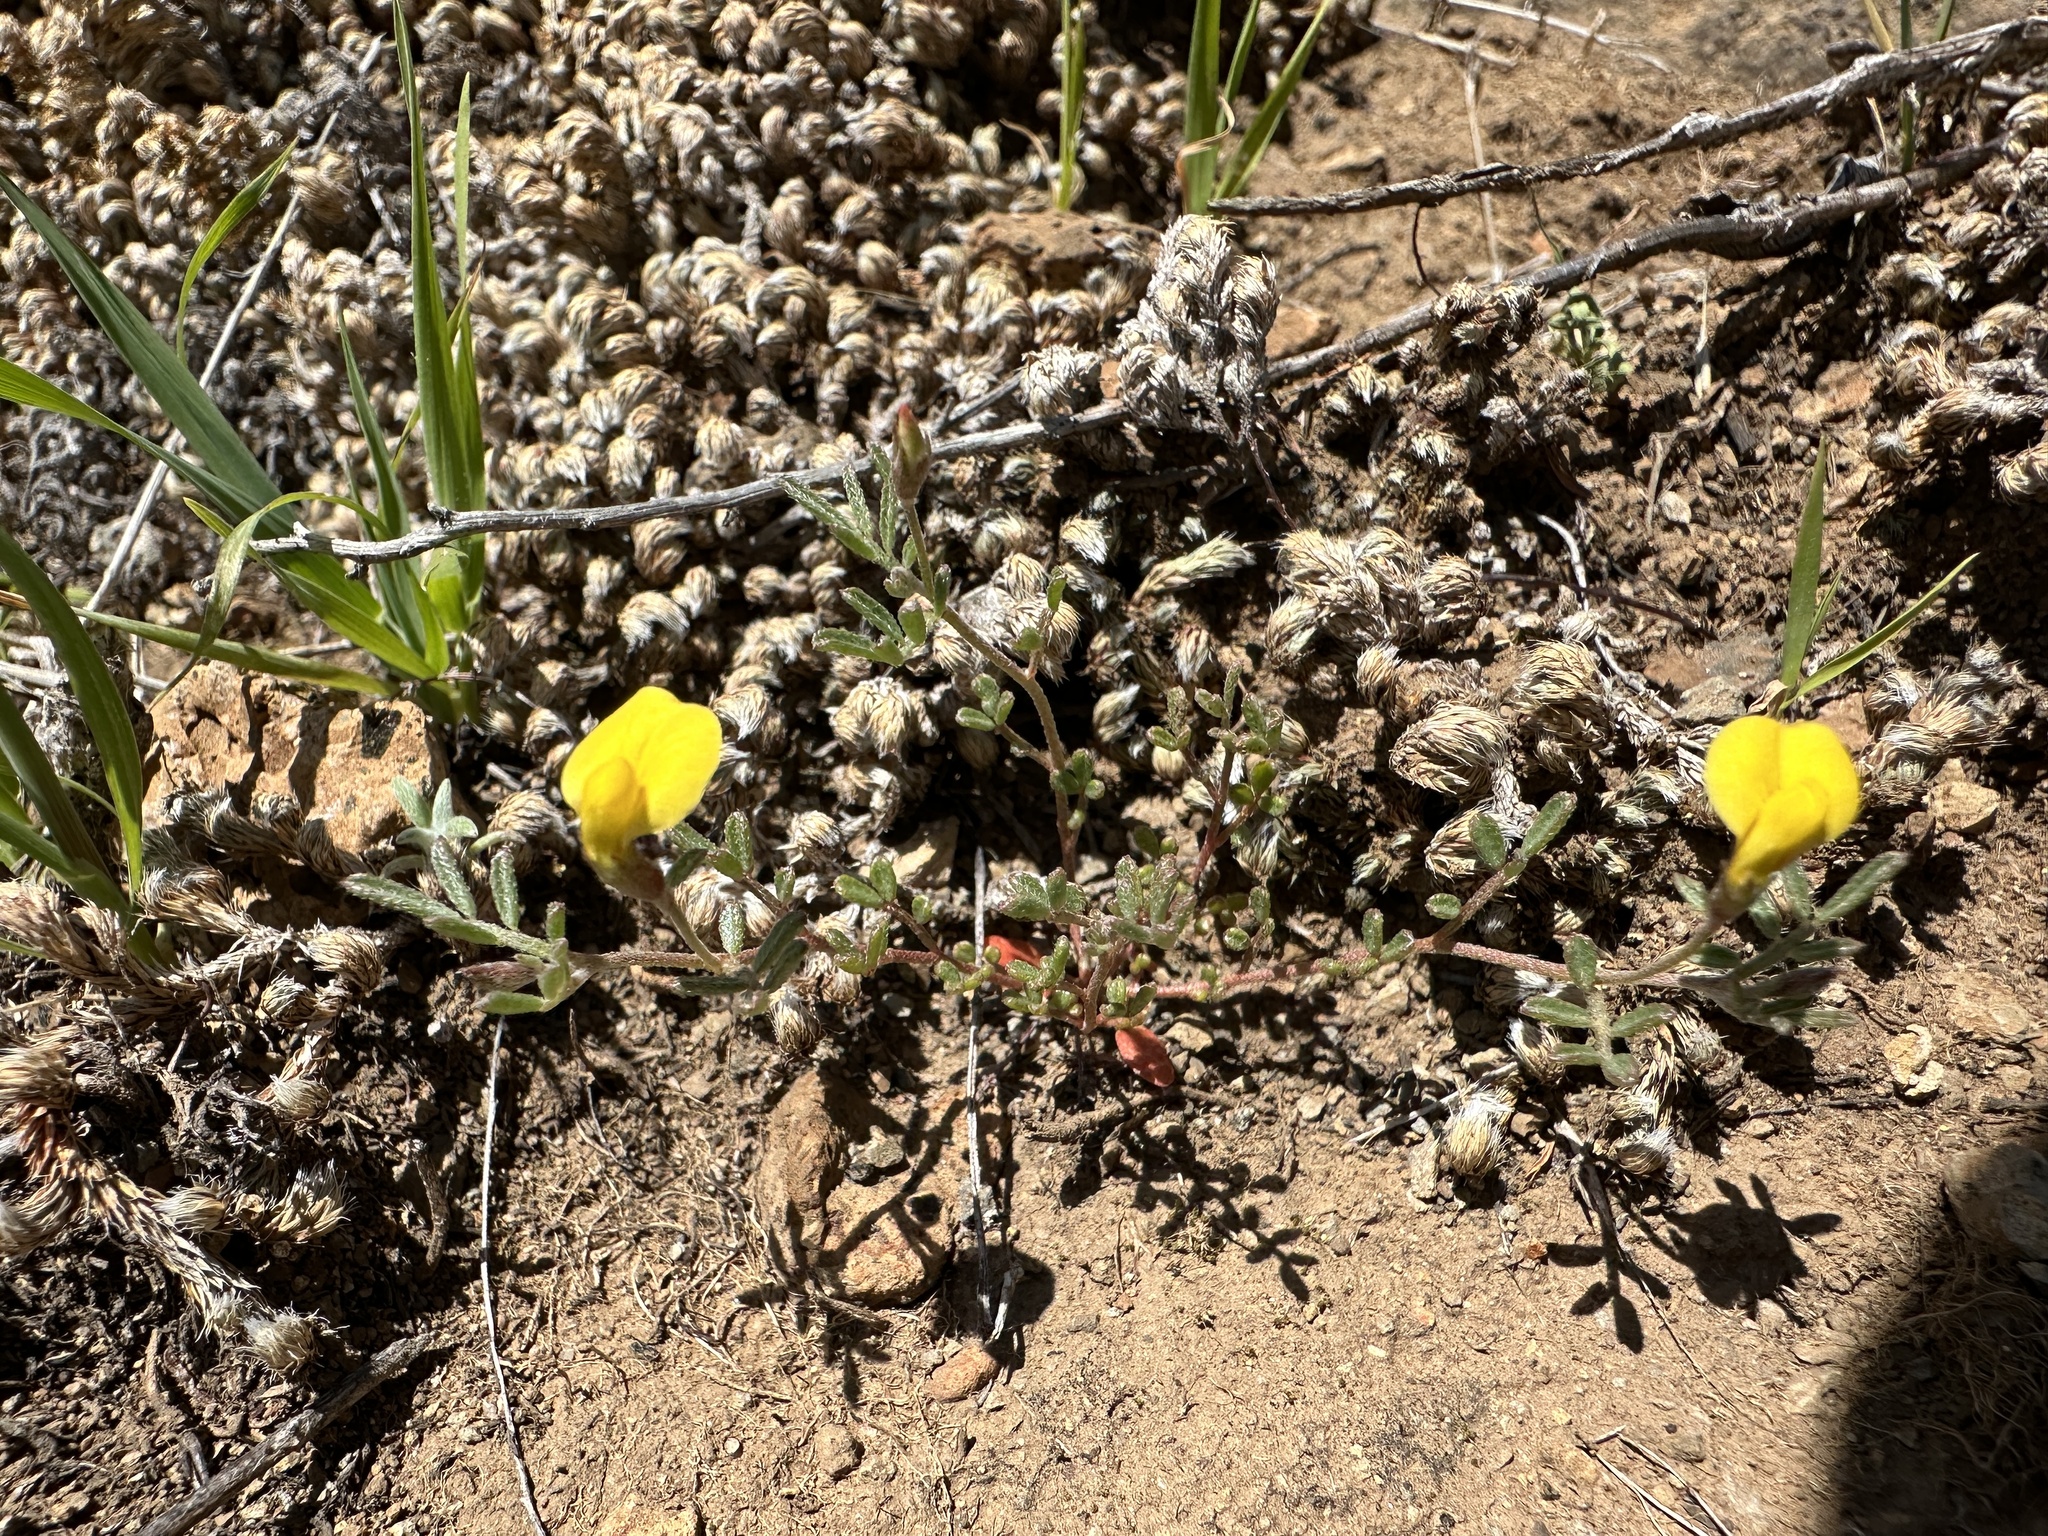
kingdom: Plantae
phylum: Tracheophyta
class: Magnoliopsida
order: Fabales
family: Fabaceae
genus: Acmispon
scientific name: Acmispon strigosus
